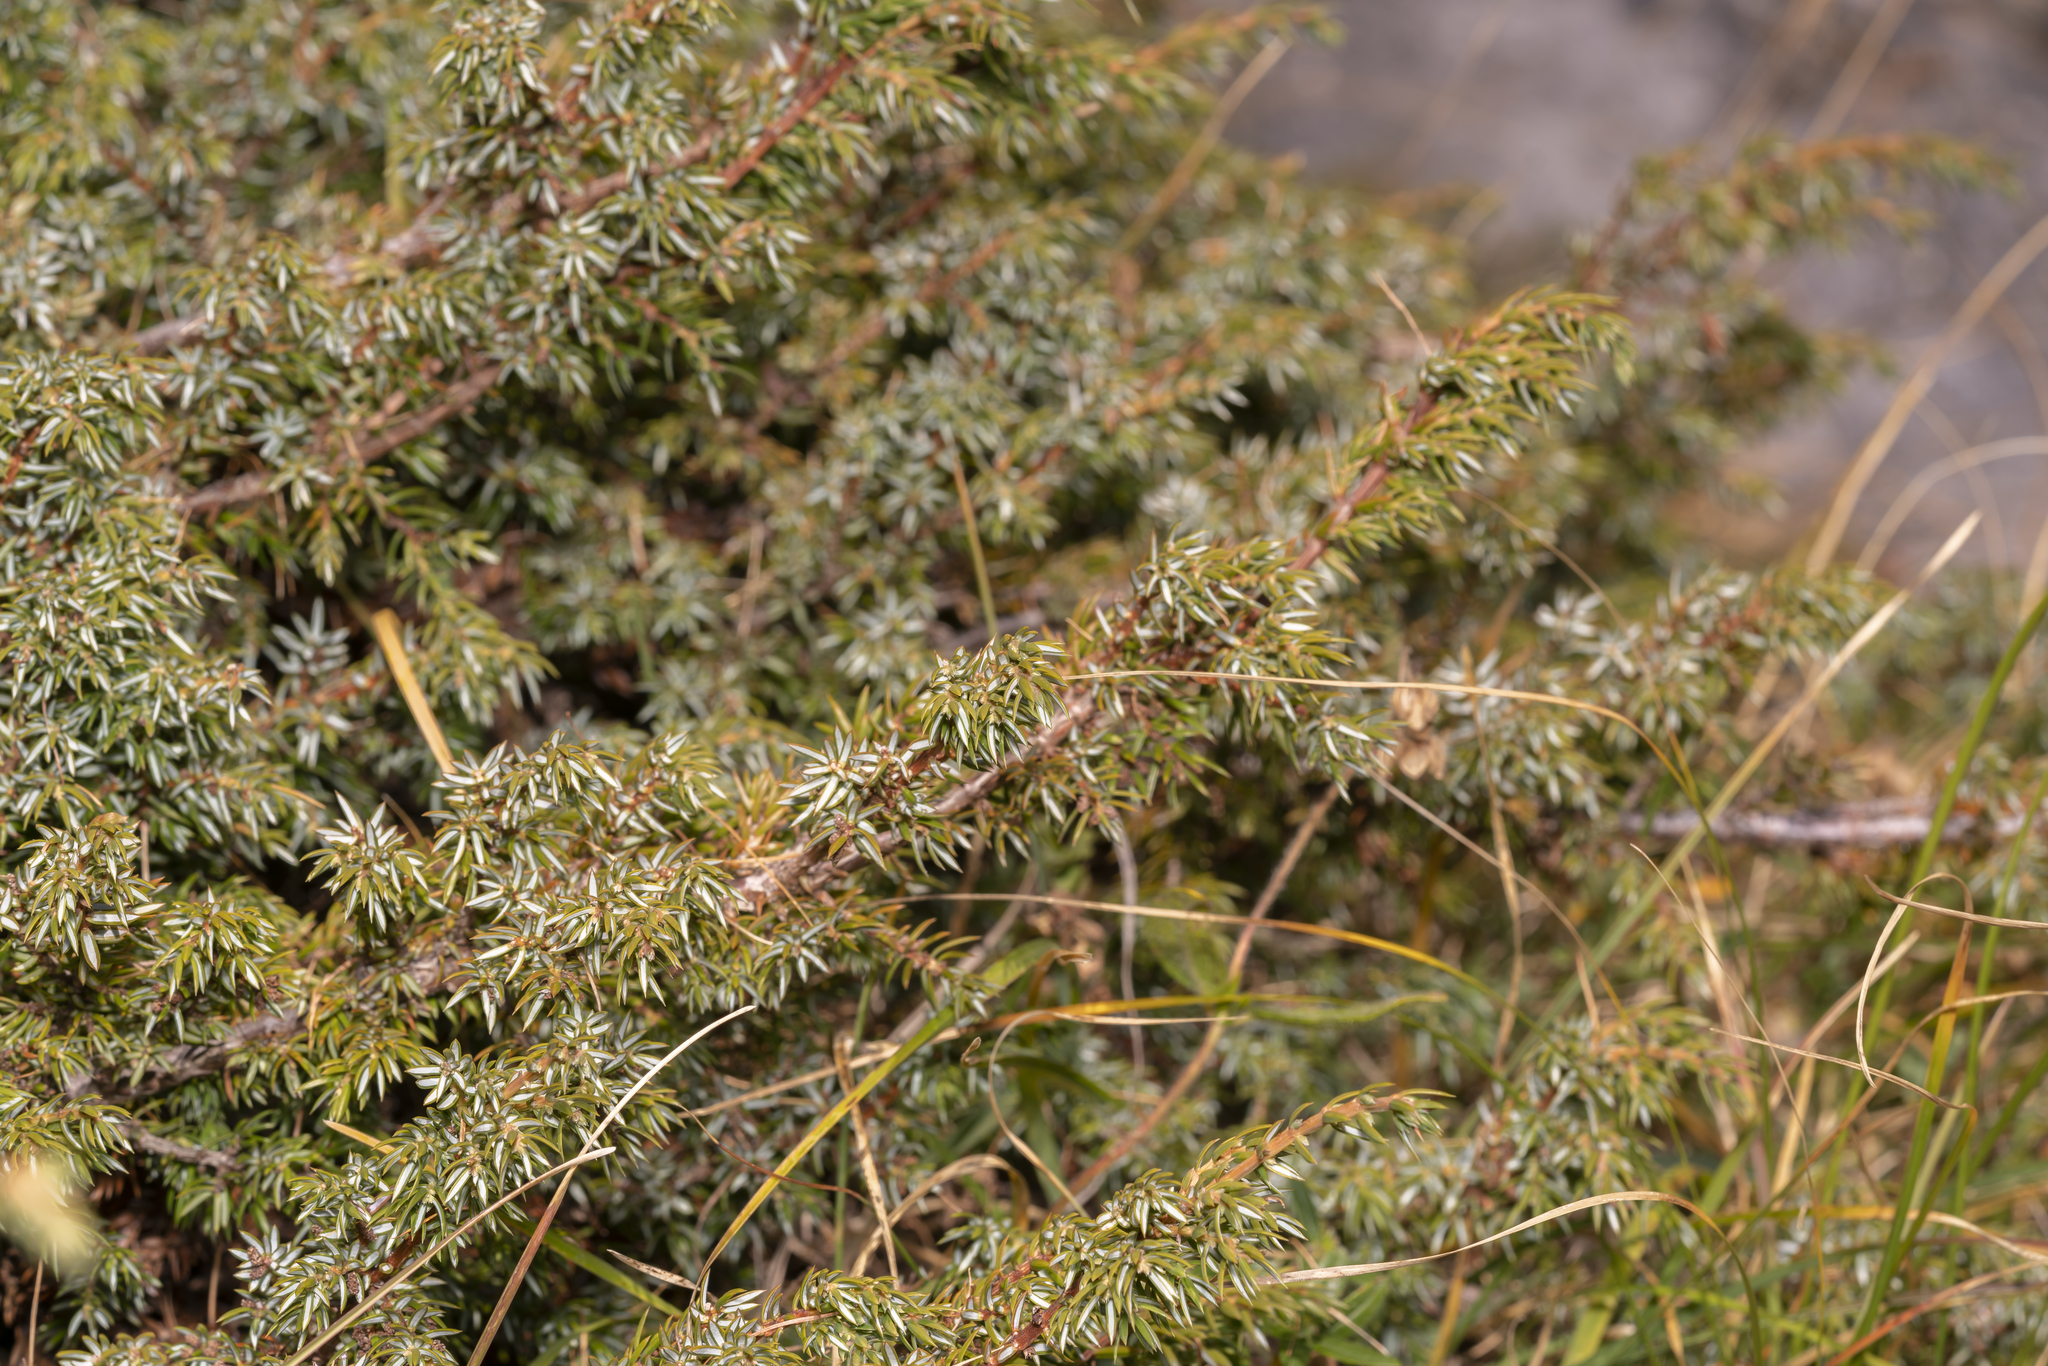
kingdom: Plantae
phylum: Tracheophyta
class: Pinopsida
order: Pinales
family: Cupressaceae
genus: Juniperus
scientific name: Juniperus communis
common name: Common juniper
